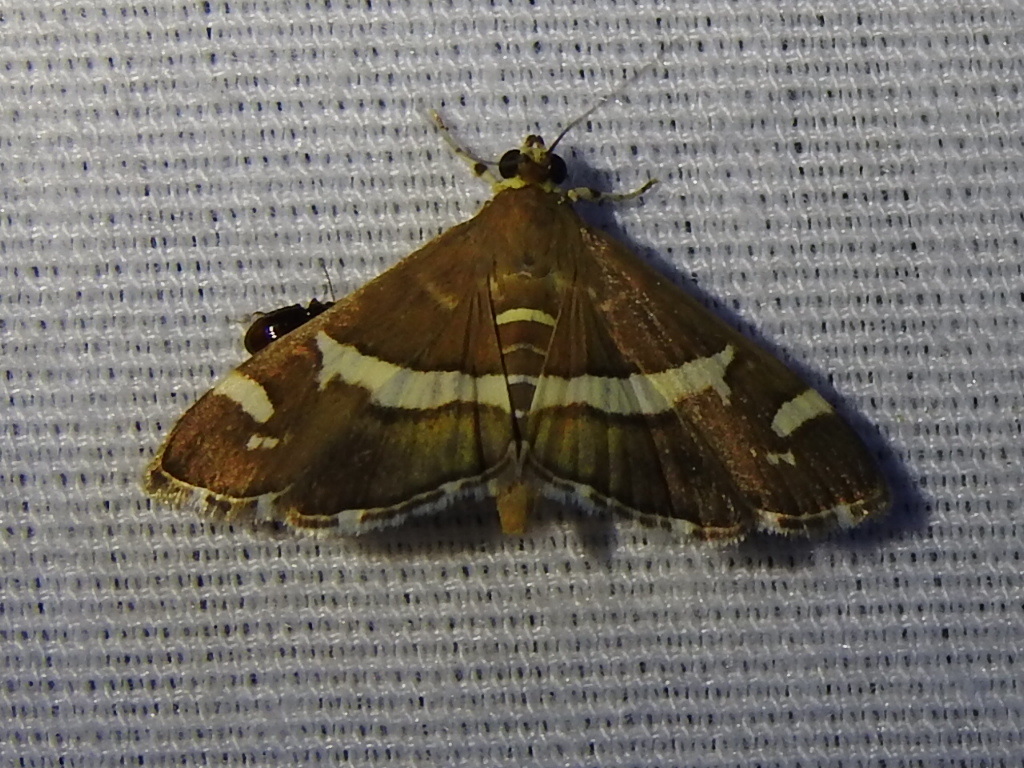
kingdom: Animalia
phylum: Arthropoda
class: Insecta
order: Lepidoptera
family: Crambidae
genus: Spoladea
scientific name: Spoladea recurvalis
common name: Beet webworm moth
